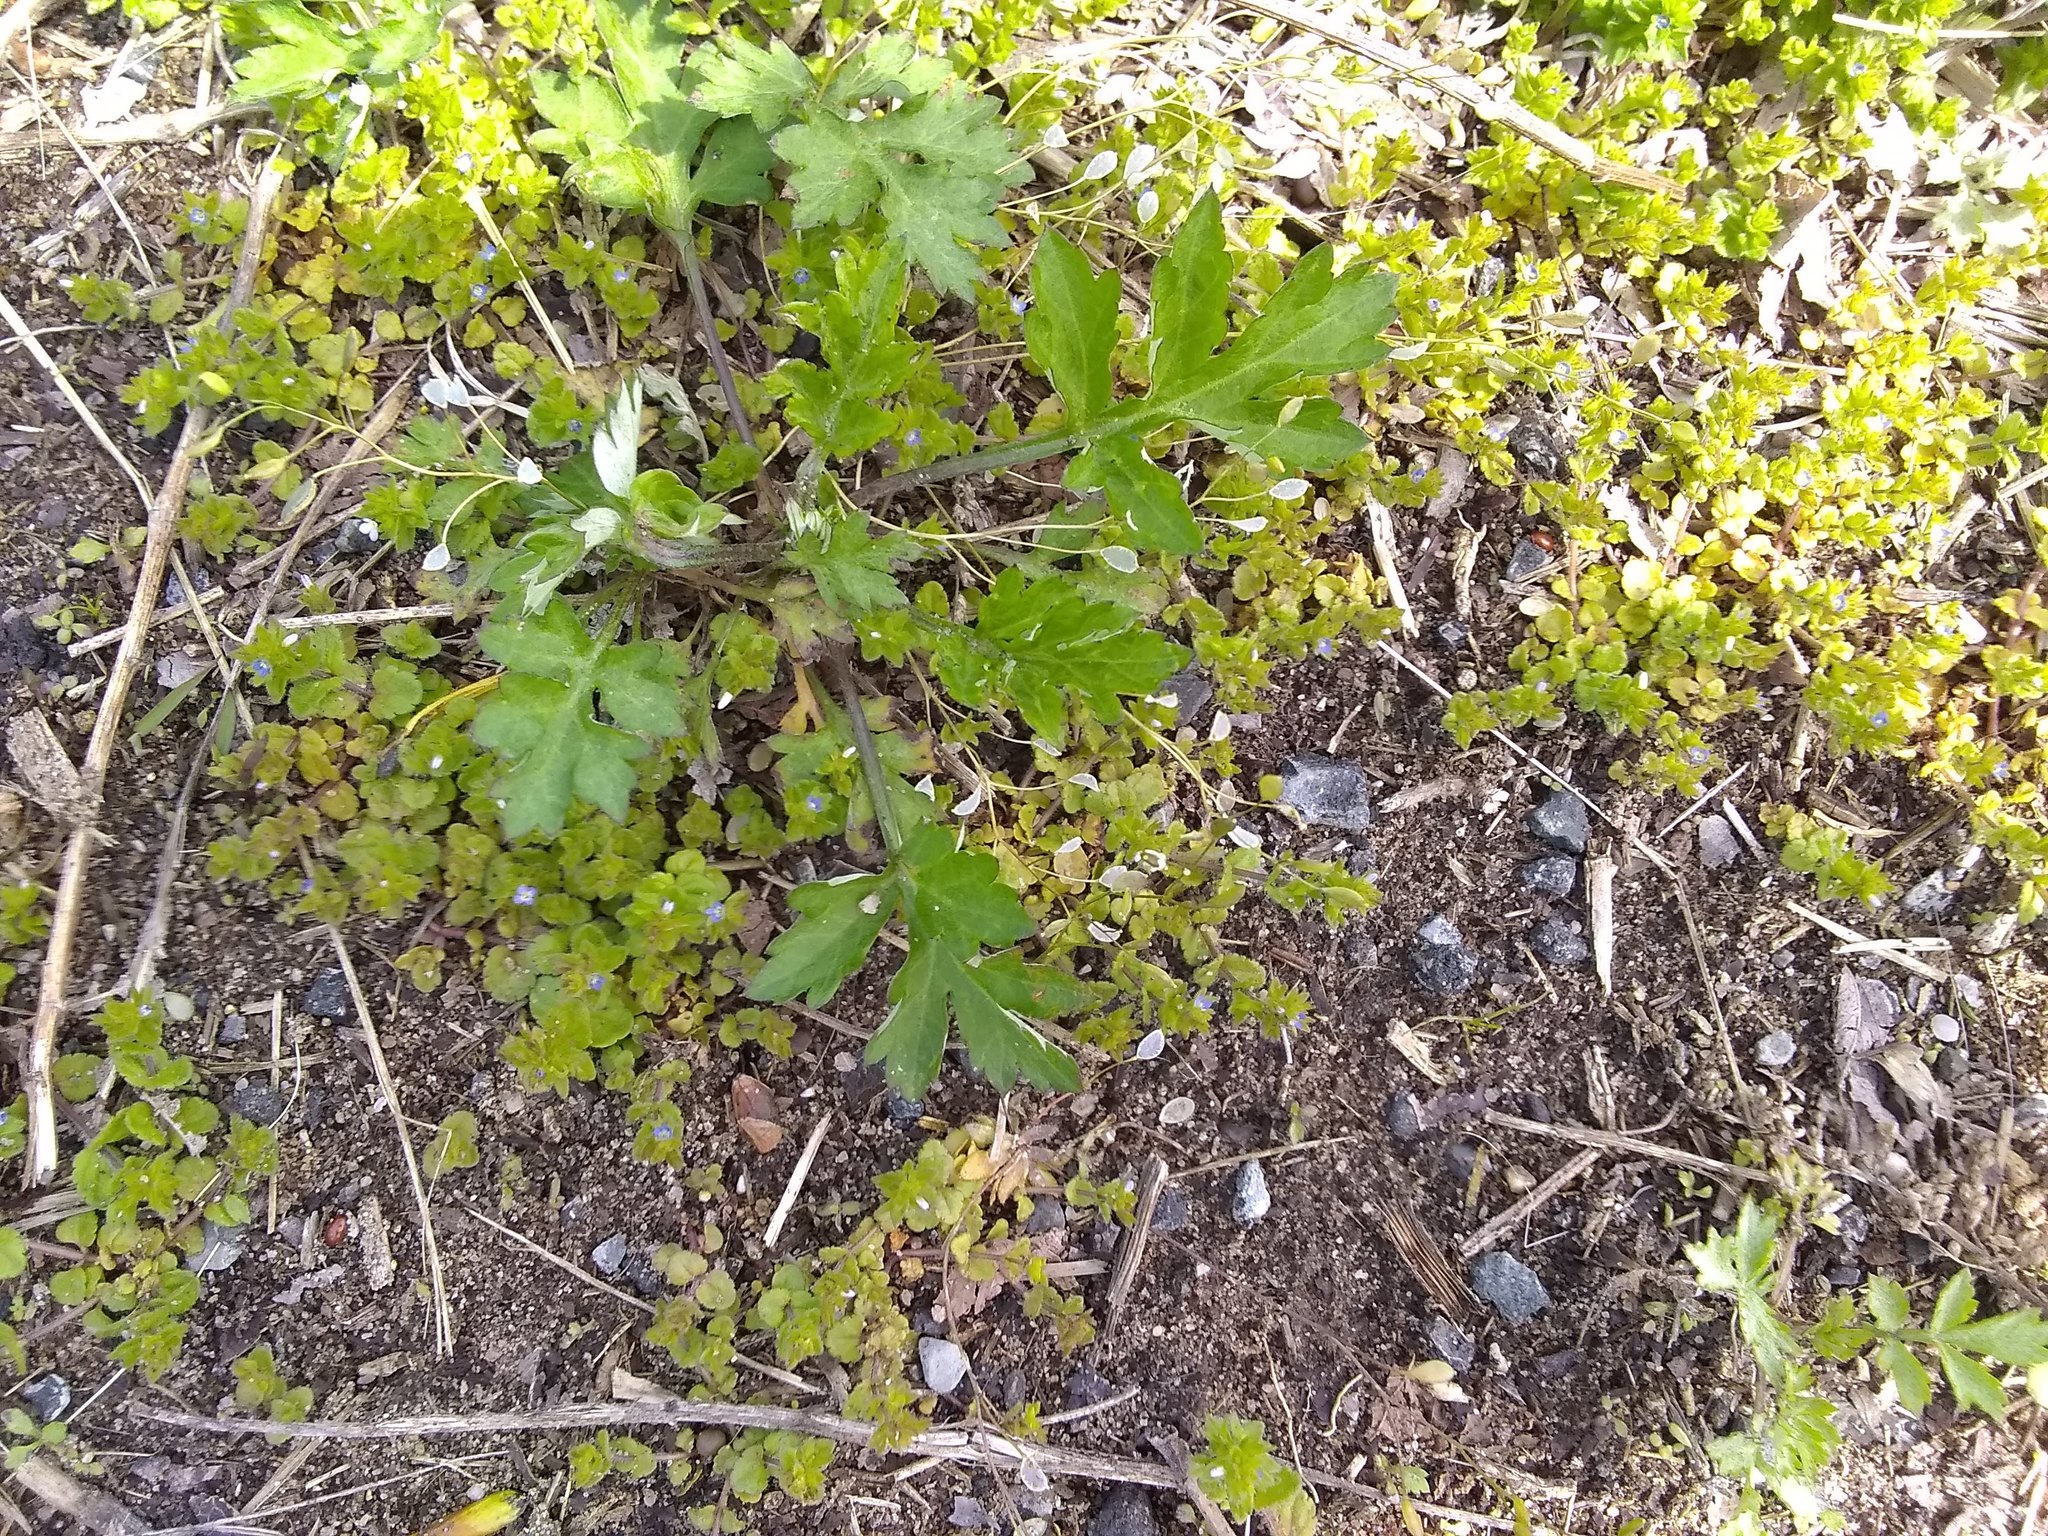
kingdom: Plantae
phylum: Tracheophyta
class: Magnoliopsida
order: Asterales
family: Asteraceae
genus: Artemisia
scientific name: Artemisia vulgaris
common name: Mugwort
